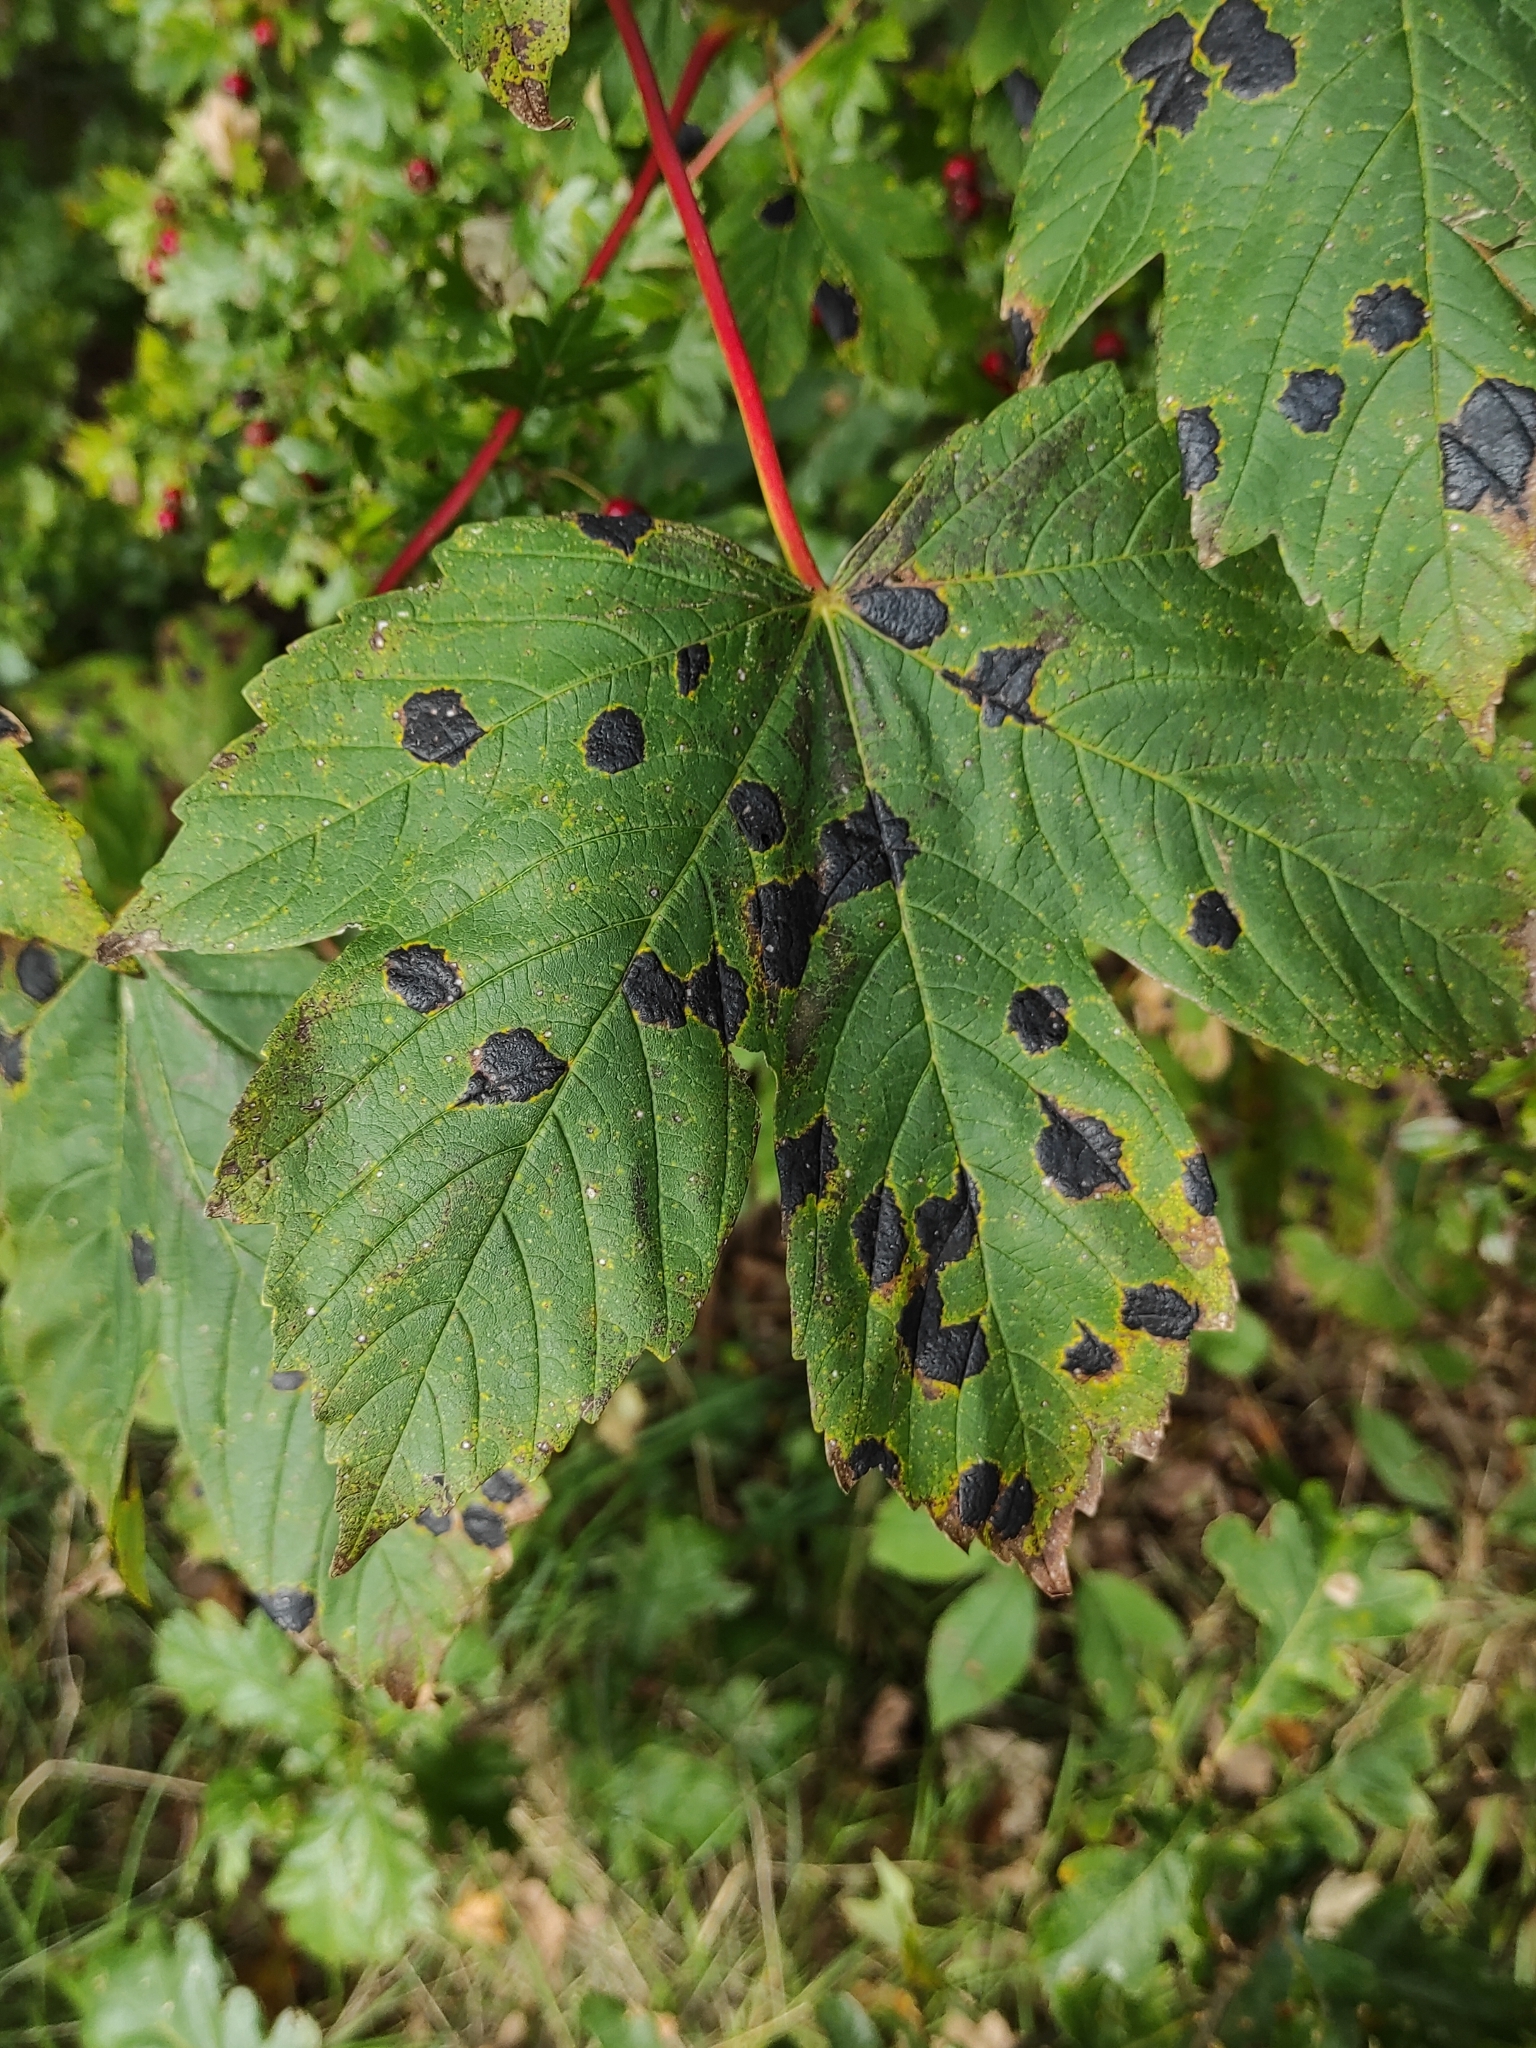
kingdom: Fungi
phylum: Ascomycota
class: Leotiomycetes
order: Rhytismatales
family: Rhytismataceae
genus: Rhytisma
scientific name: Rhytisma acerinum
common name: European tar spot
